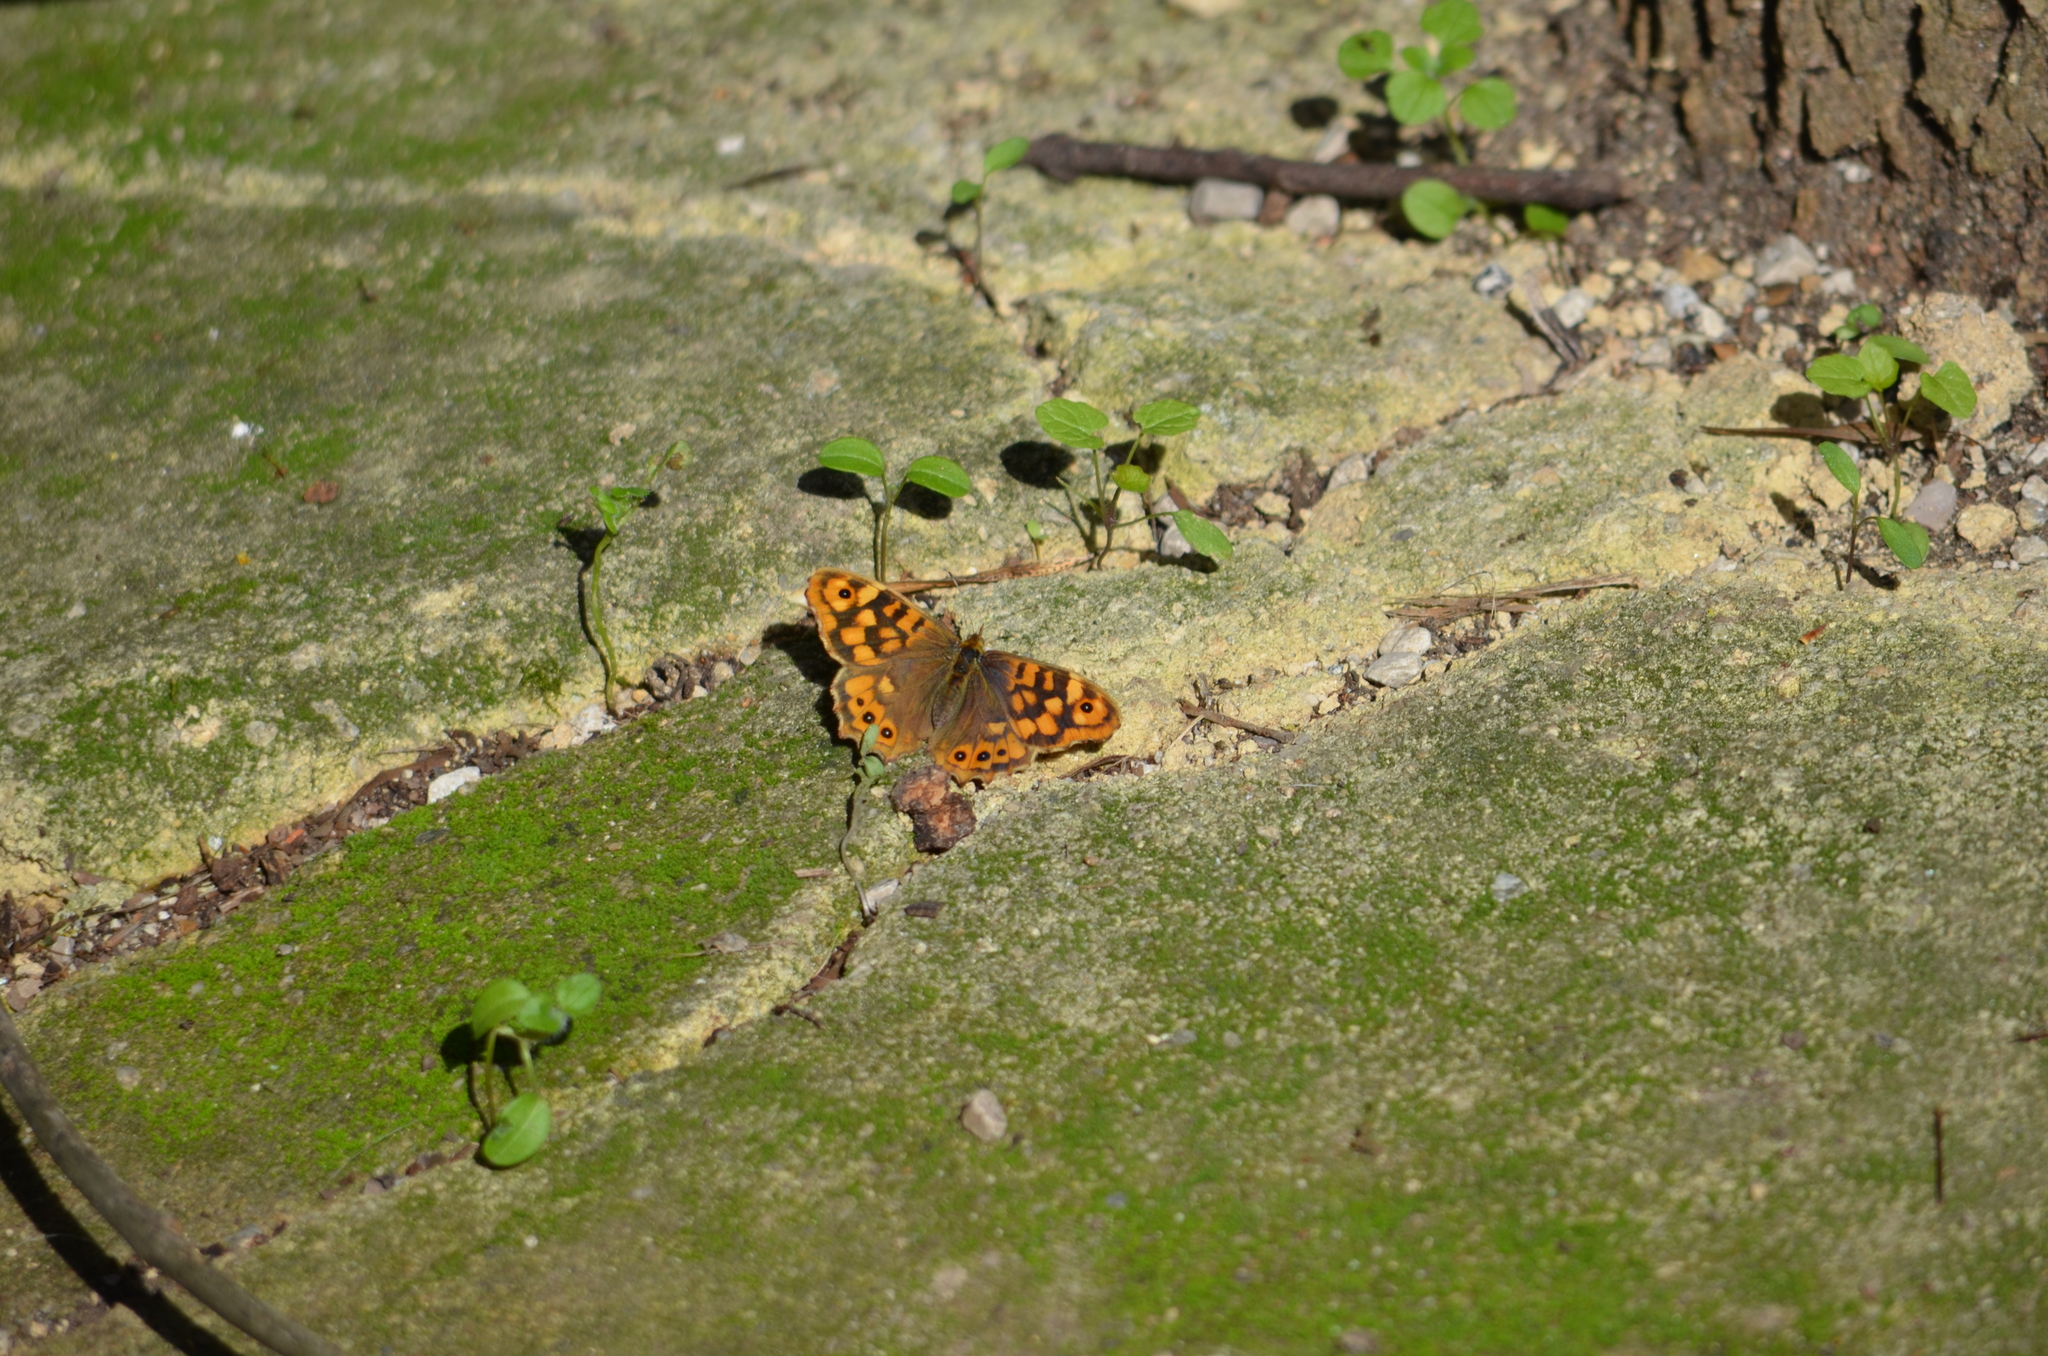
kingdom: Animalia
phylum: Arthropoda
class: Insecta
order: Lepidoptera
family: Nymphalidae
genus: Pararge
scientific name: Pararge aegeria
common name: Speckled wood
